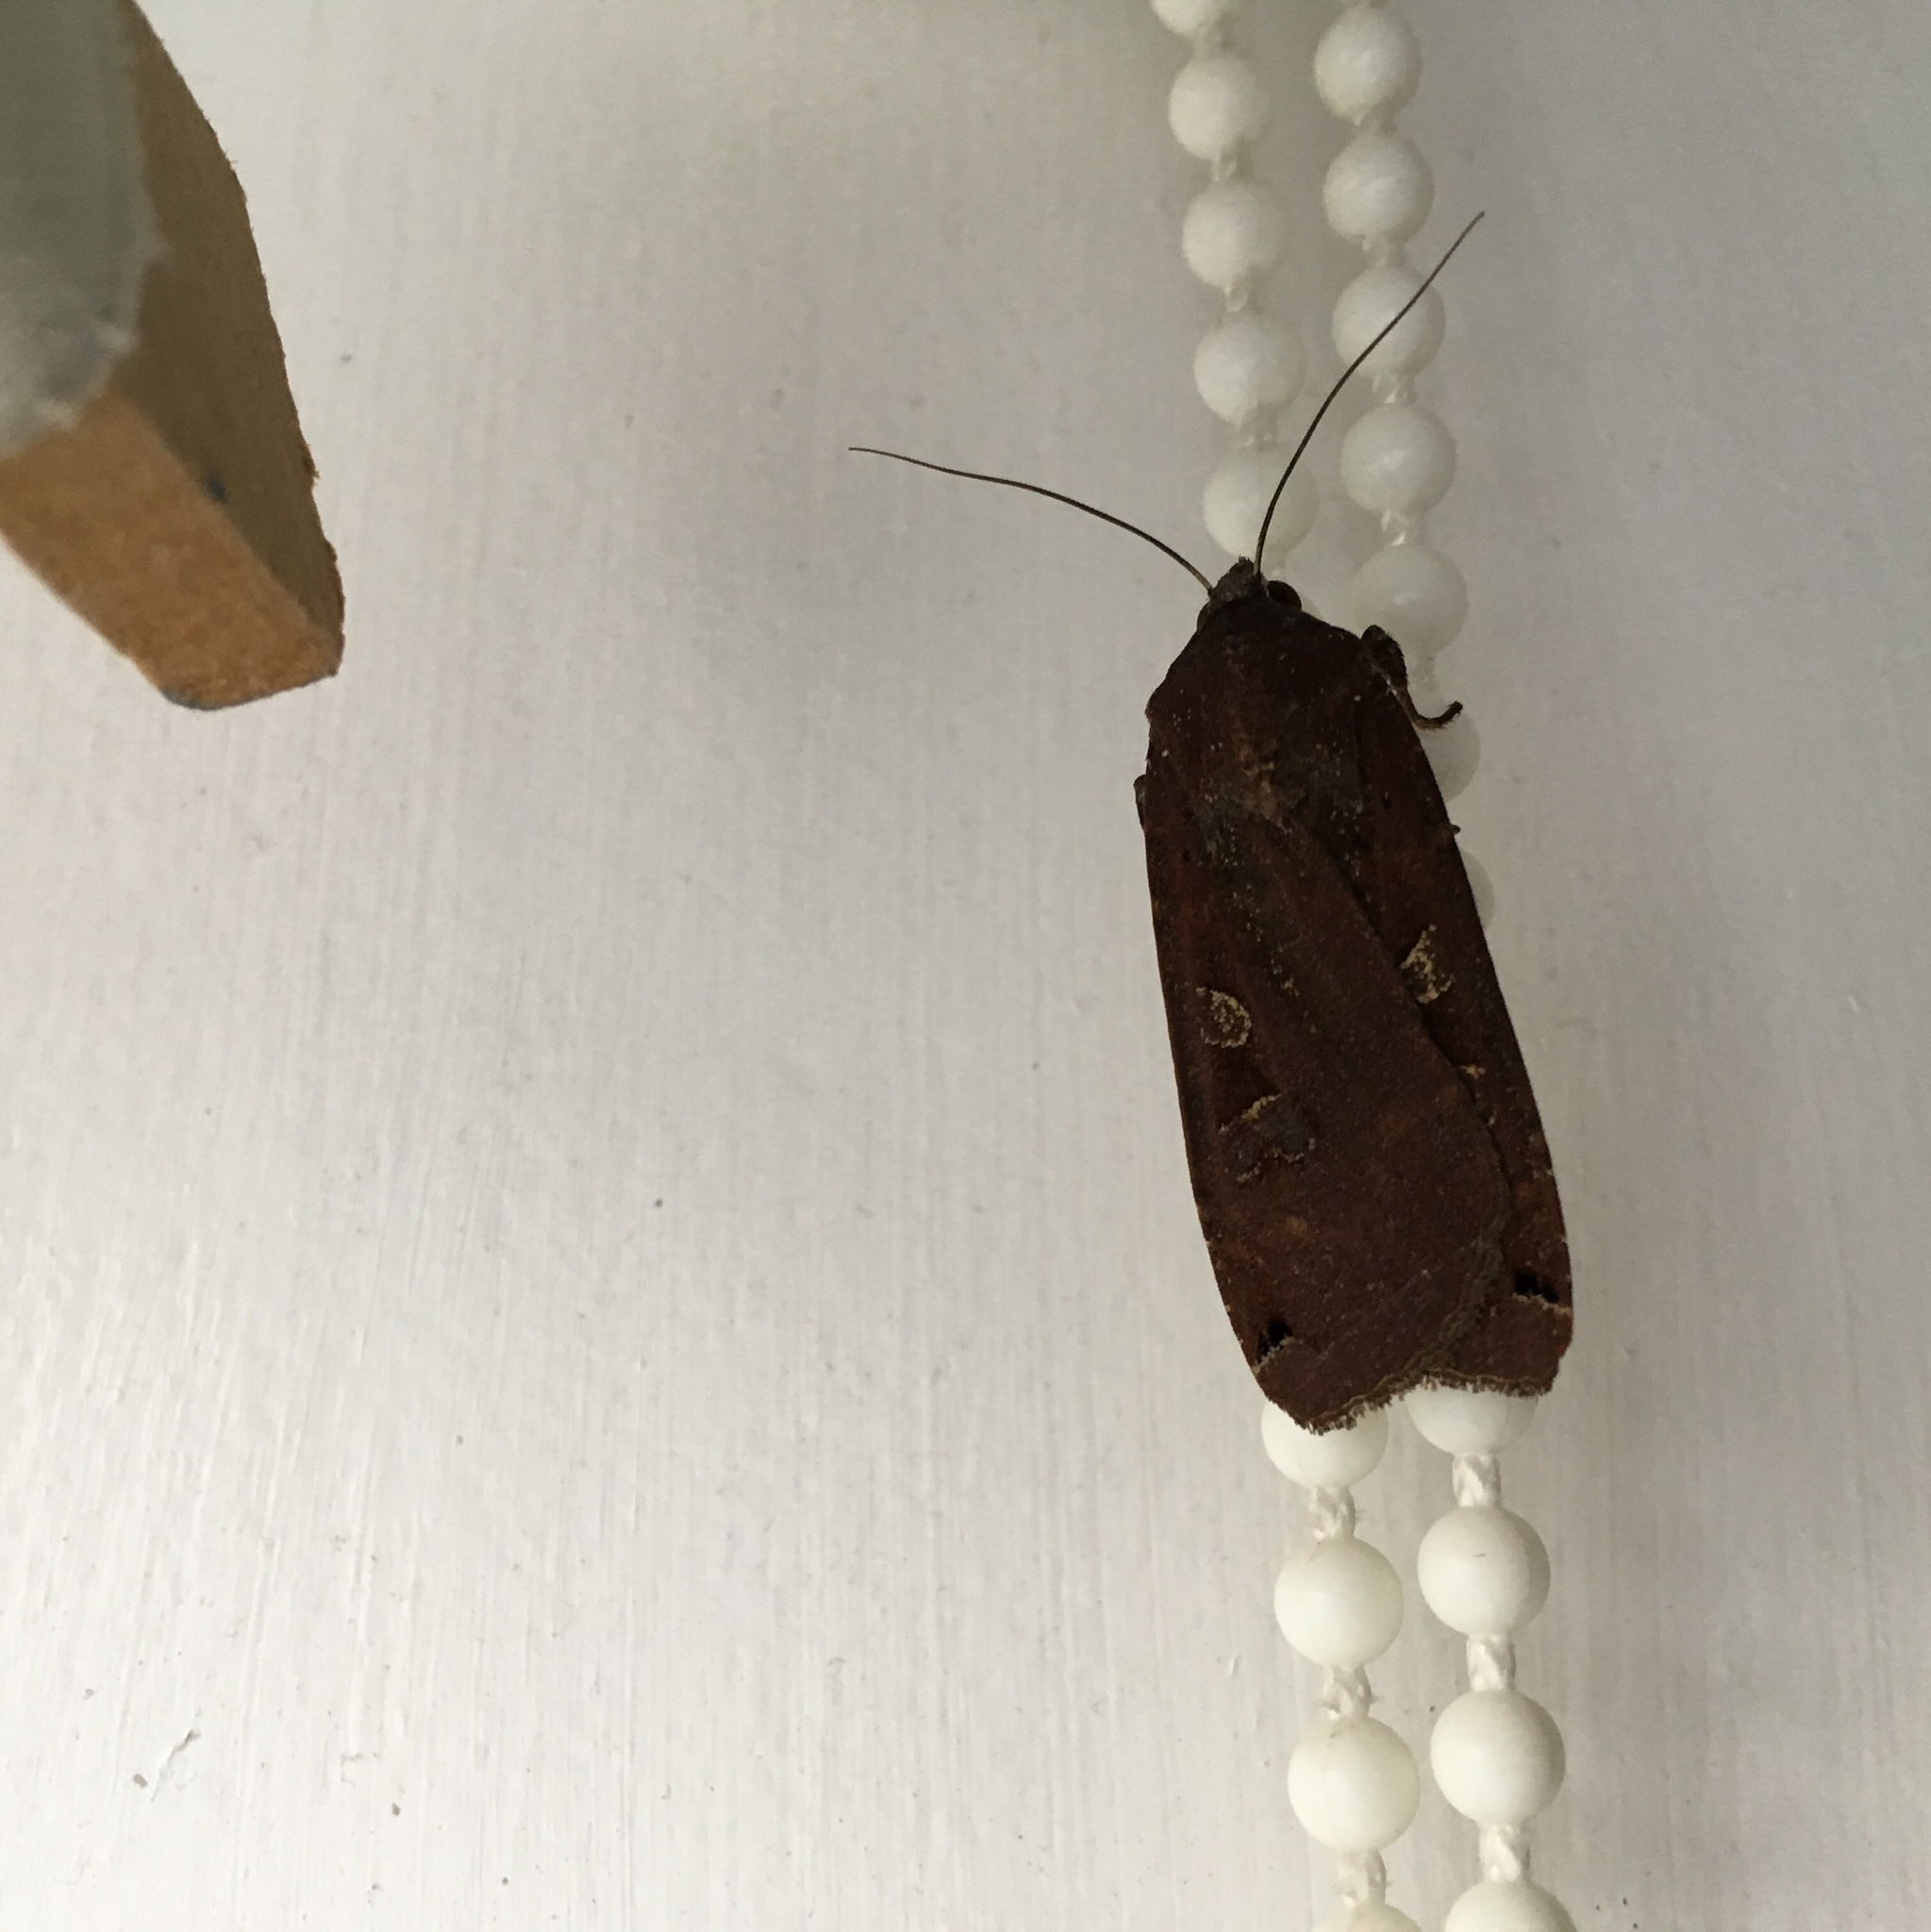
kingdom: Animalia
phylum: Arthropoda
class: Insecta
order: Lepidoptera
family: Noctuidae
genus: Noctua
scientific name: Noctua pronuba
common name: Large yellow underwing
